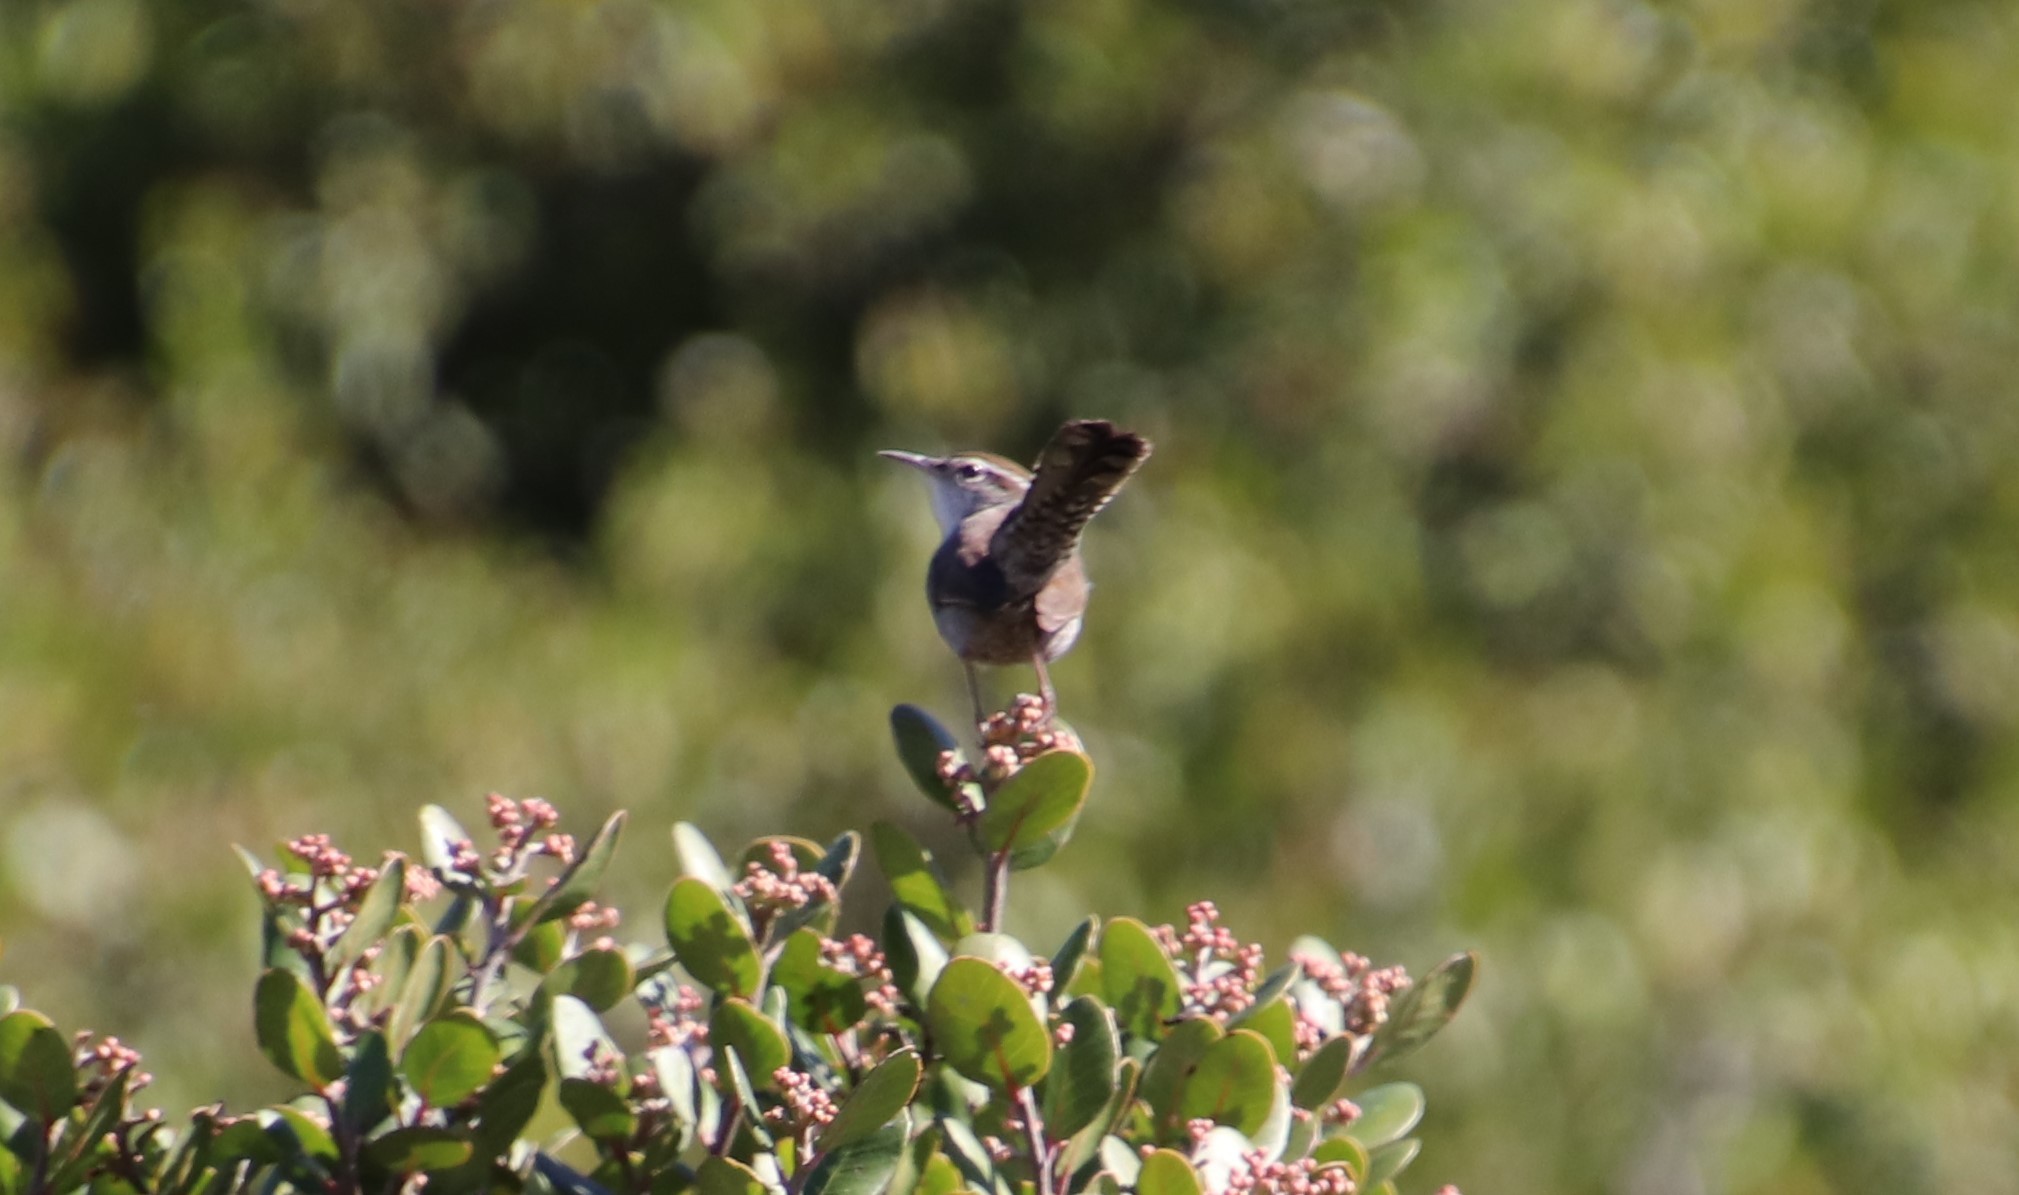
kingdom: Animalia
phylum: Chordata
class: Aves
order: Passeriformes
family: Troglodytidae
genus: Thryomanes
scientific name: Thryomanes bewickii
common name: Bewick's wren
